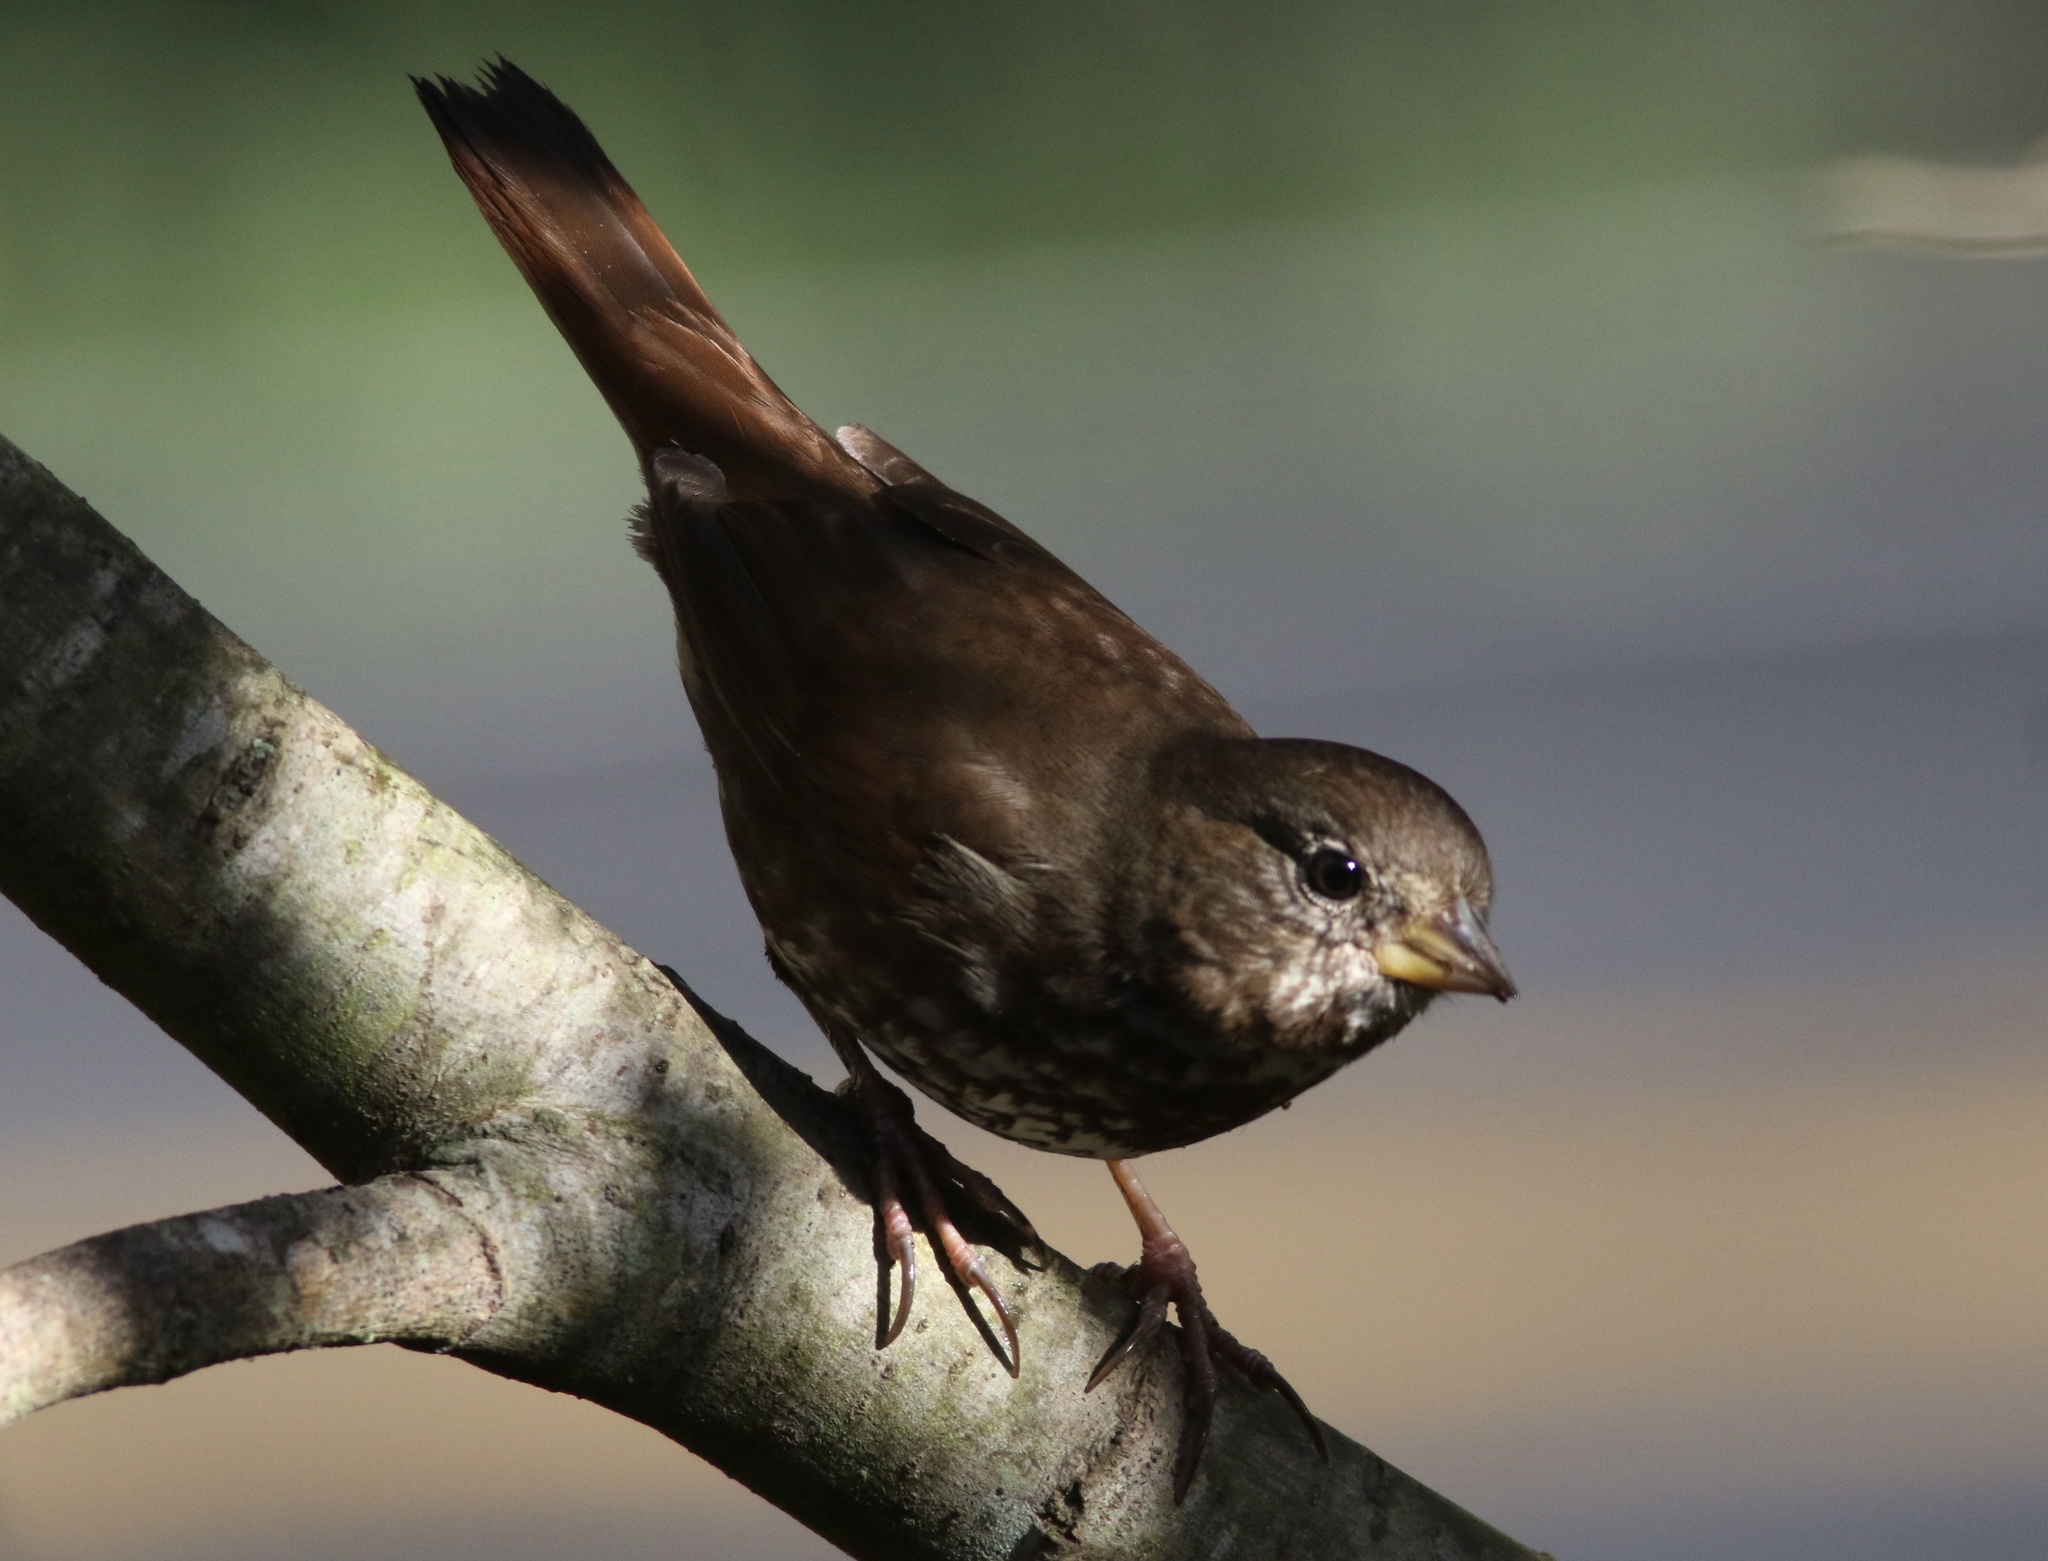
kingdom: Animalia
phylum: Chordata
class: Aves
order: Passeriformes
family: Passerellidae
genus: Passerella
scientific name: Passerella iliaca
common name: Fox sparrow
